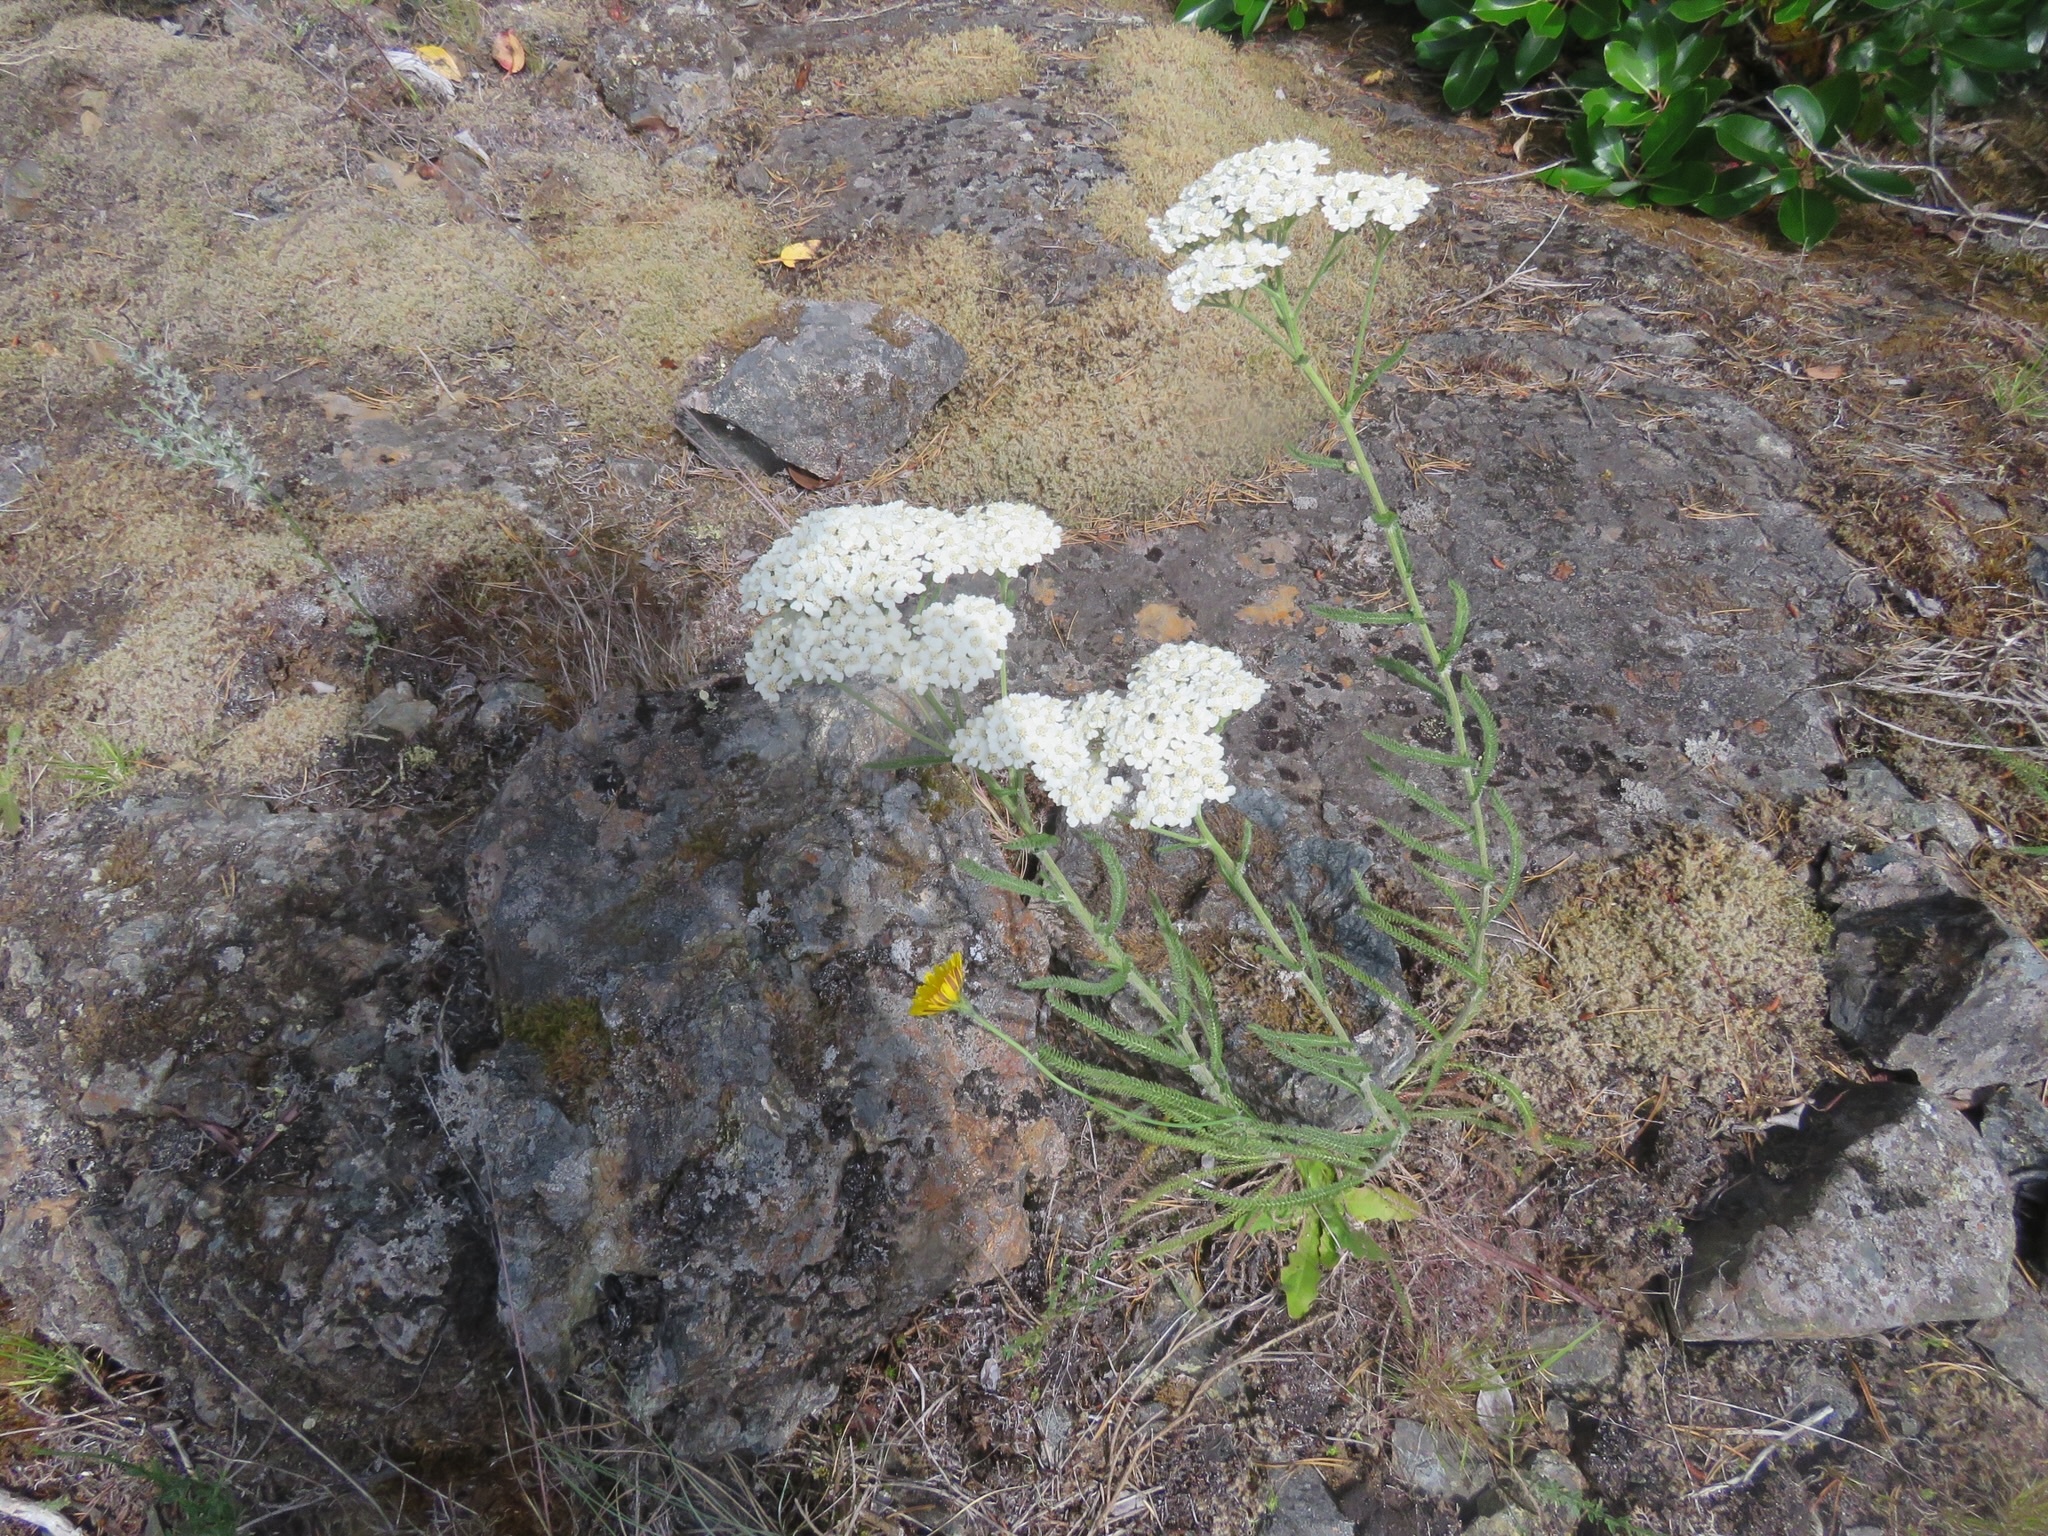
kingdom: Plantae
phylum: Tracheophyta
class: Magnoliopsida
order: Asterales
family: Asteraceae
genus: Achillea
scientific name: Achillea millefolium
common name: Yarrow
